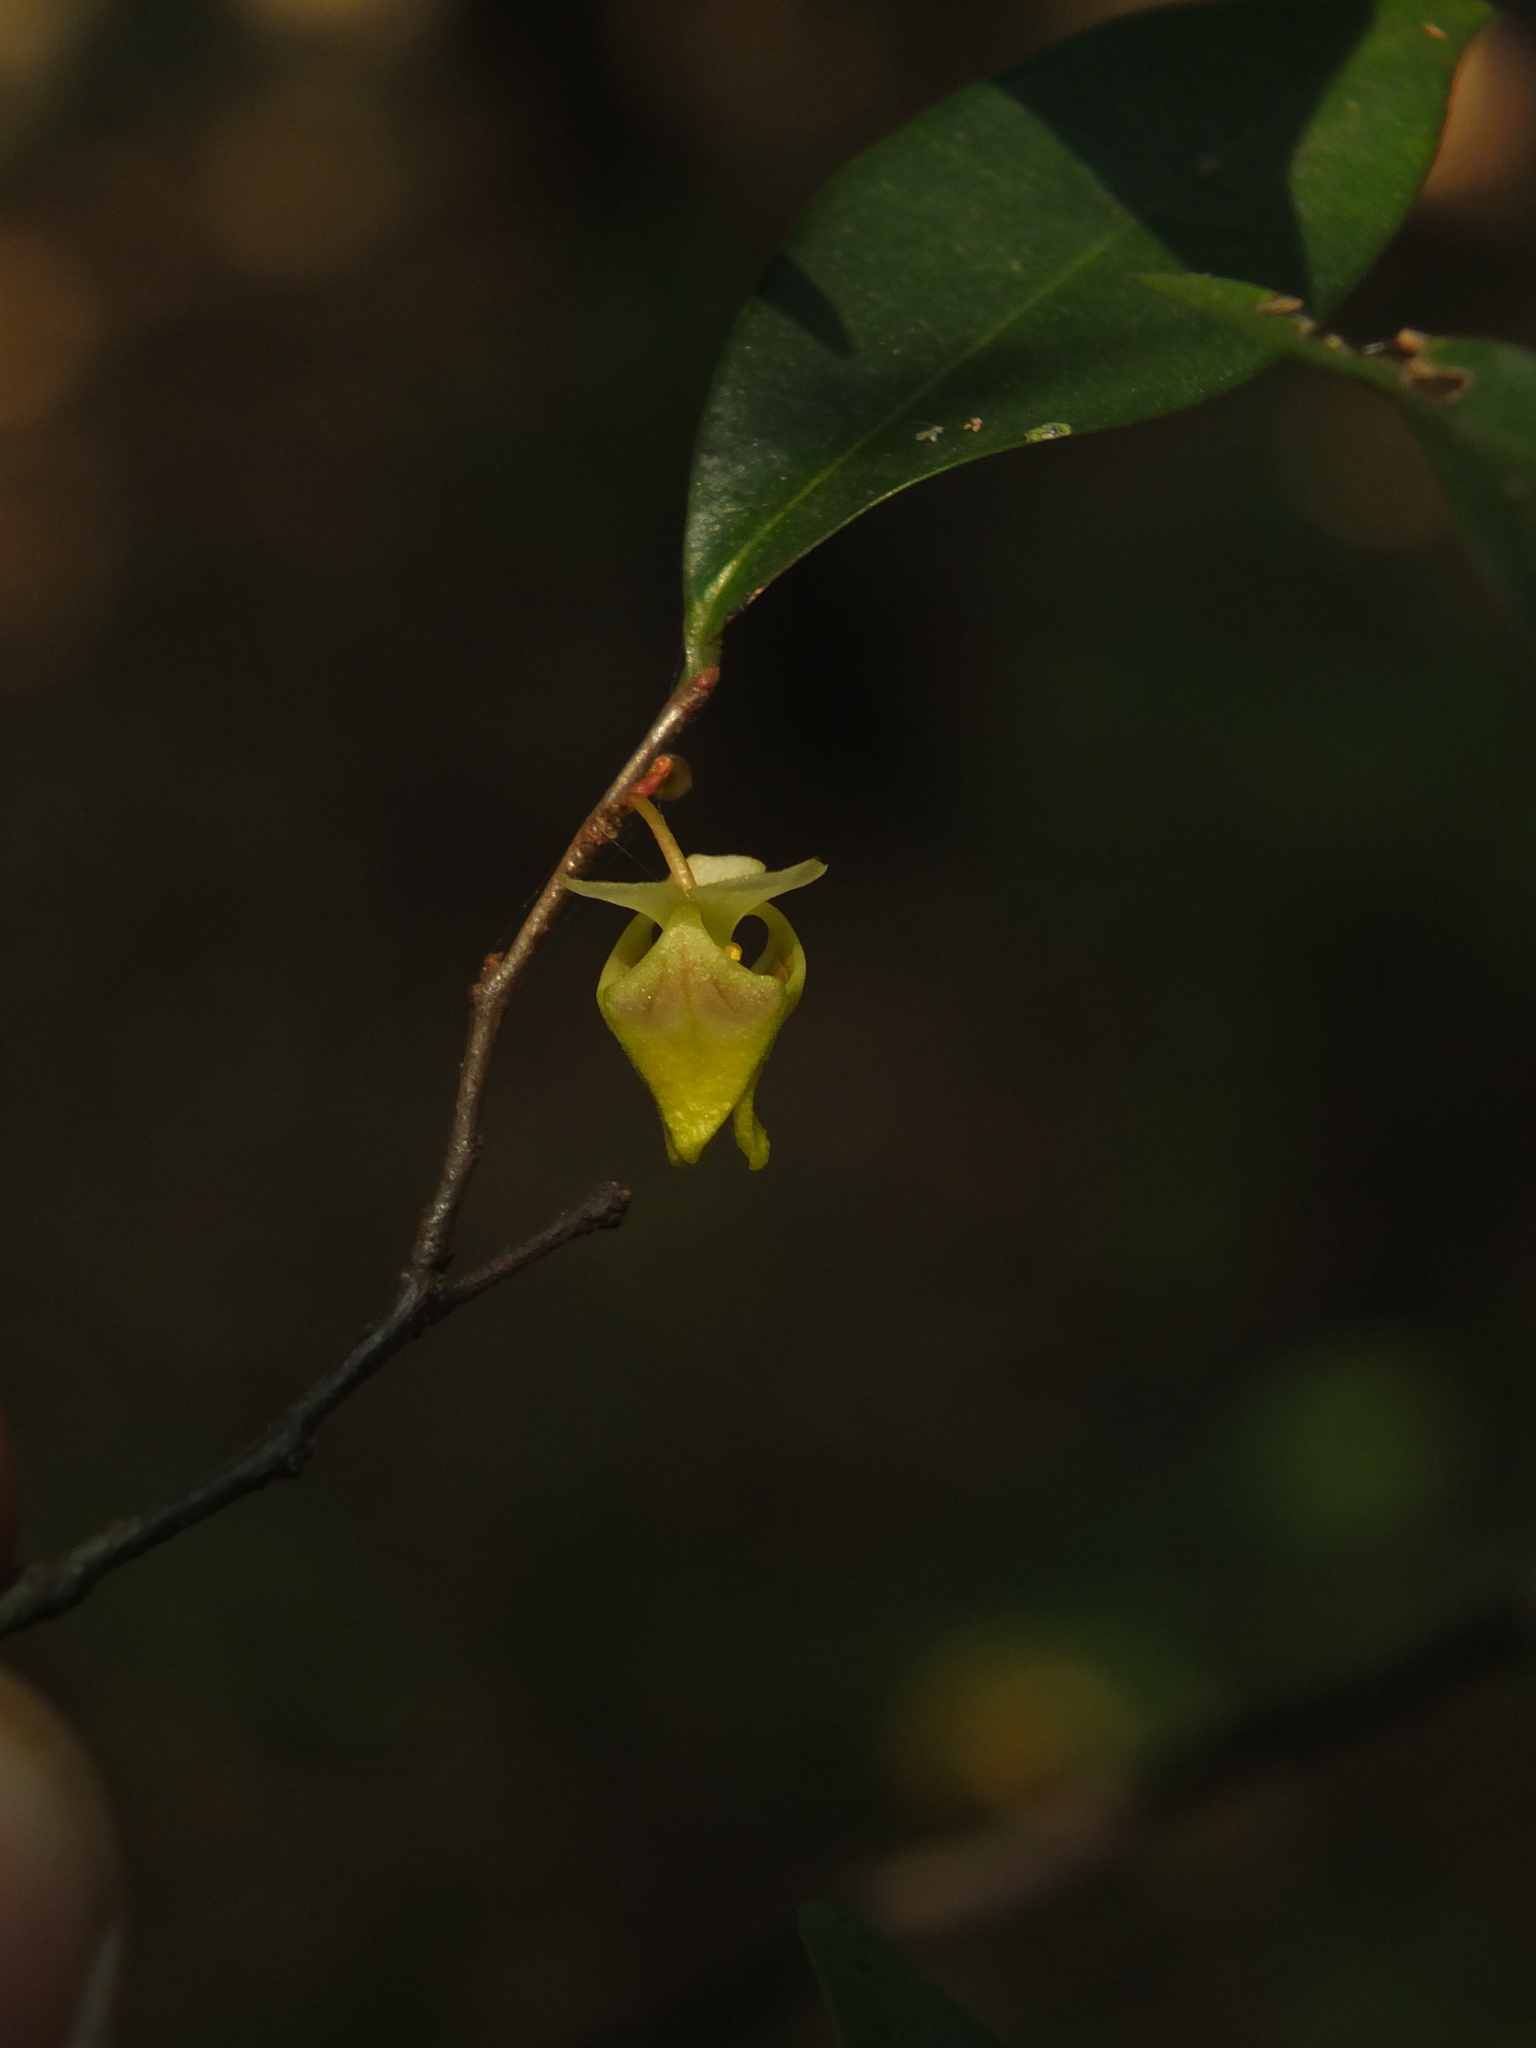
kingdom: Plantae
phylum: Tracheophyta
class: Magnoliopsida
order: Magnoliales
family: Annonaceae
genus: Orophea
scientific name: Orophea uniflora
